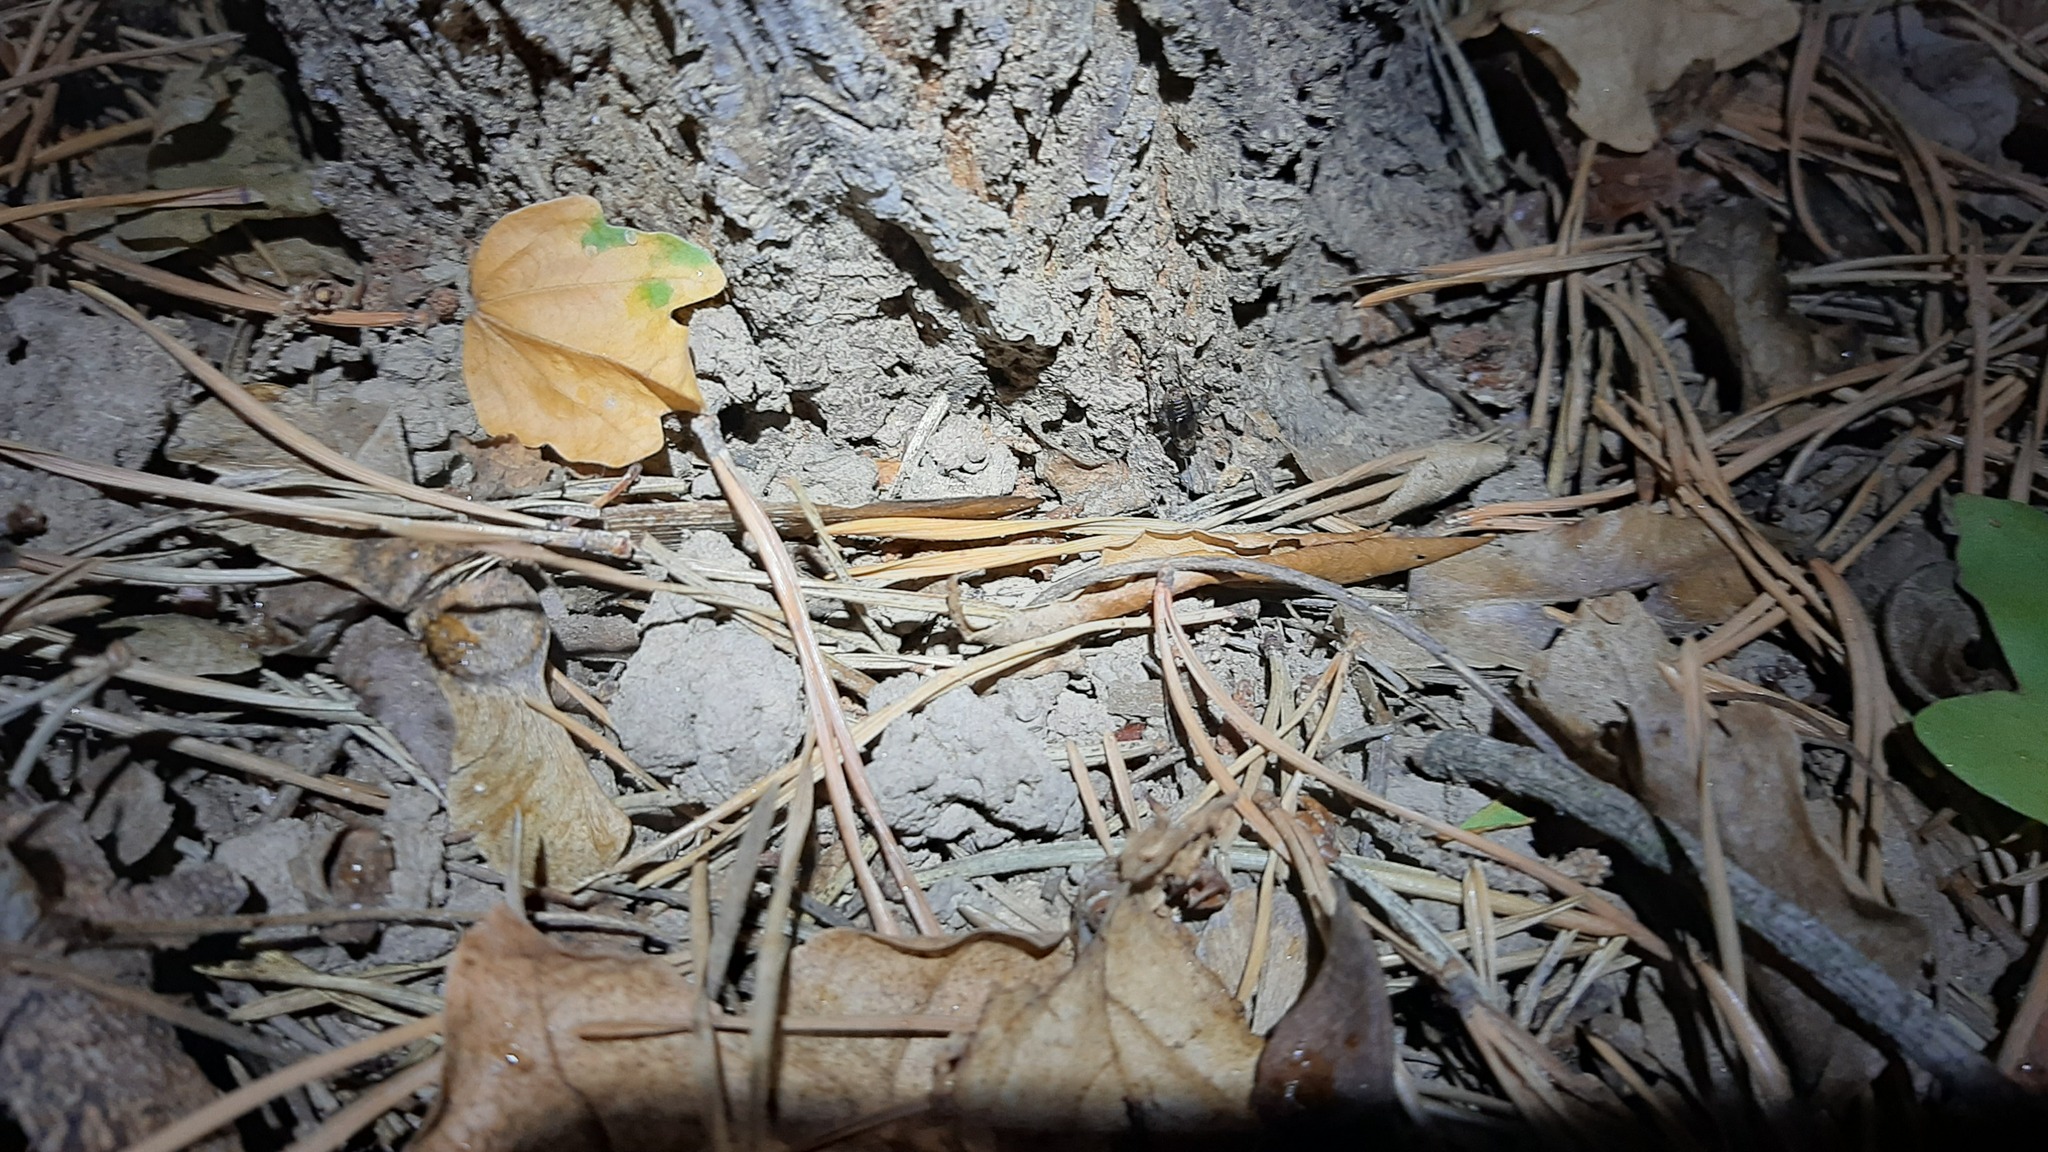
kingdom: Animalia
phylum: Arthropoda
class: Insecta
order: Orthoptera
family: Trigonidiidae
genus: Nemobius
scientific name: Nemobius sylvestris
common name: Wood-cricket
